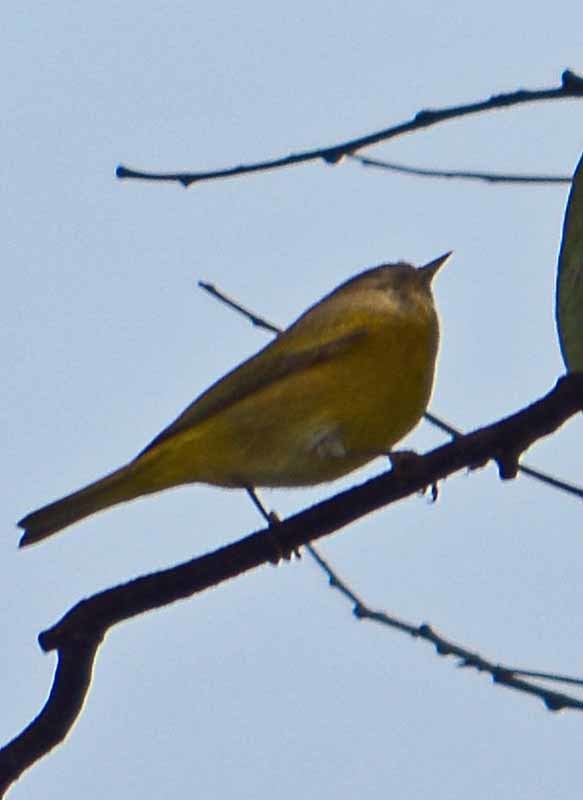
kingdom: Animalia
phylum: Chordata
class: Aves
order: Passeriformes
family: Parulidae
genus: Leiothlypis
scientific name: Leiothlypis celata
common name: Orange-crowned warbler
